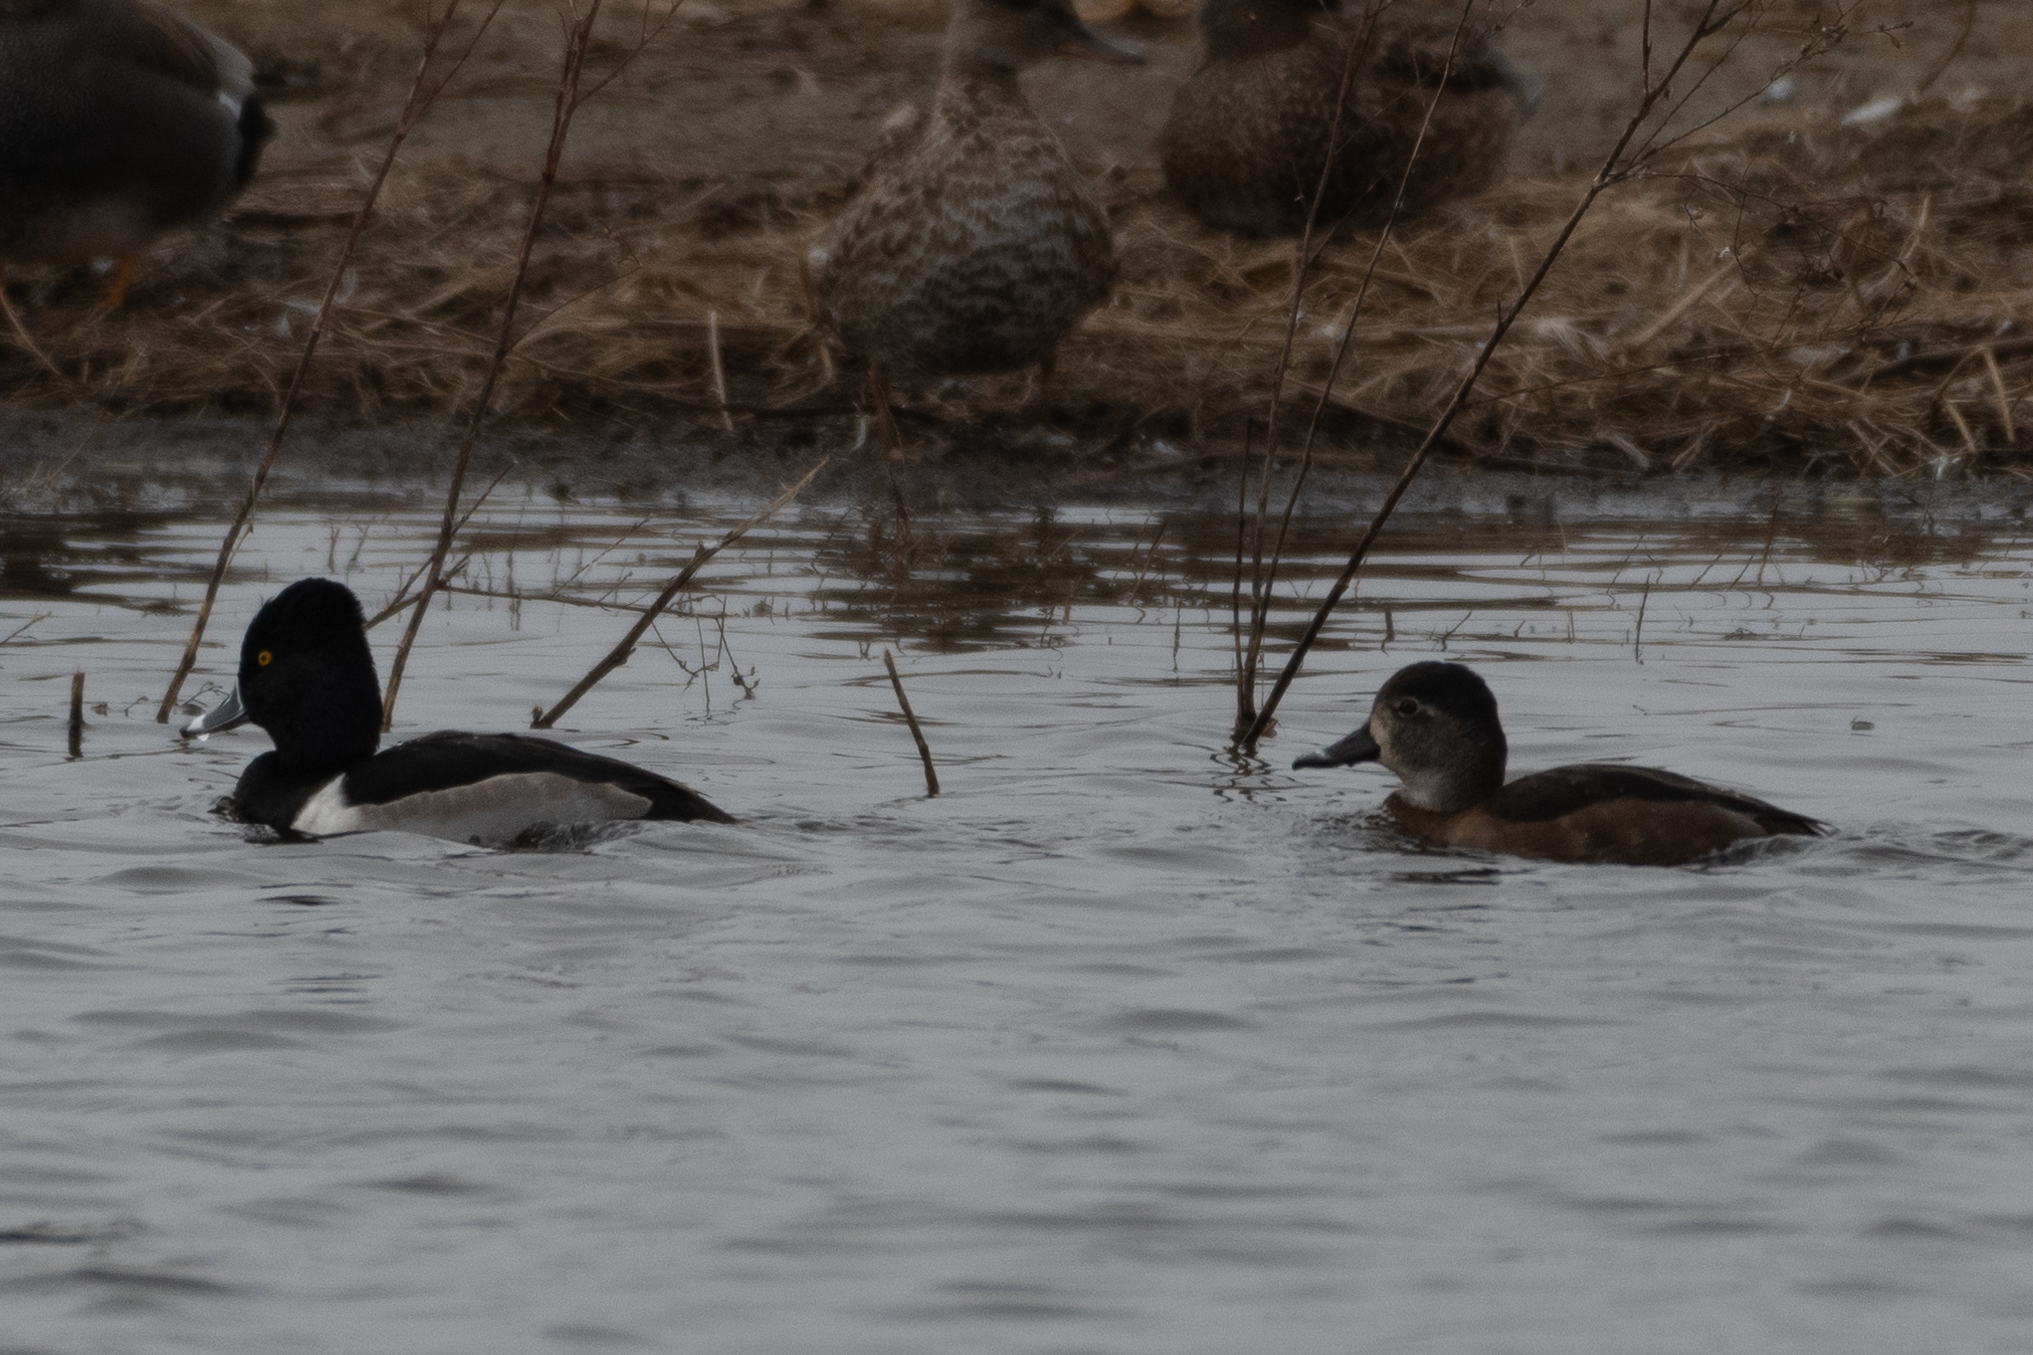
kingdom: Animalia
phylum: Chordata
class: Aves
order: Anseriformes
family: Anatidae
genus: Aythya
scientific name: Aythya collaris
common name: Ring-necked duck
